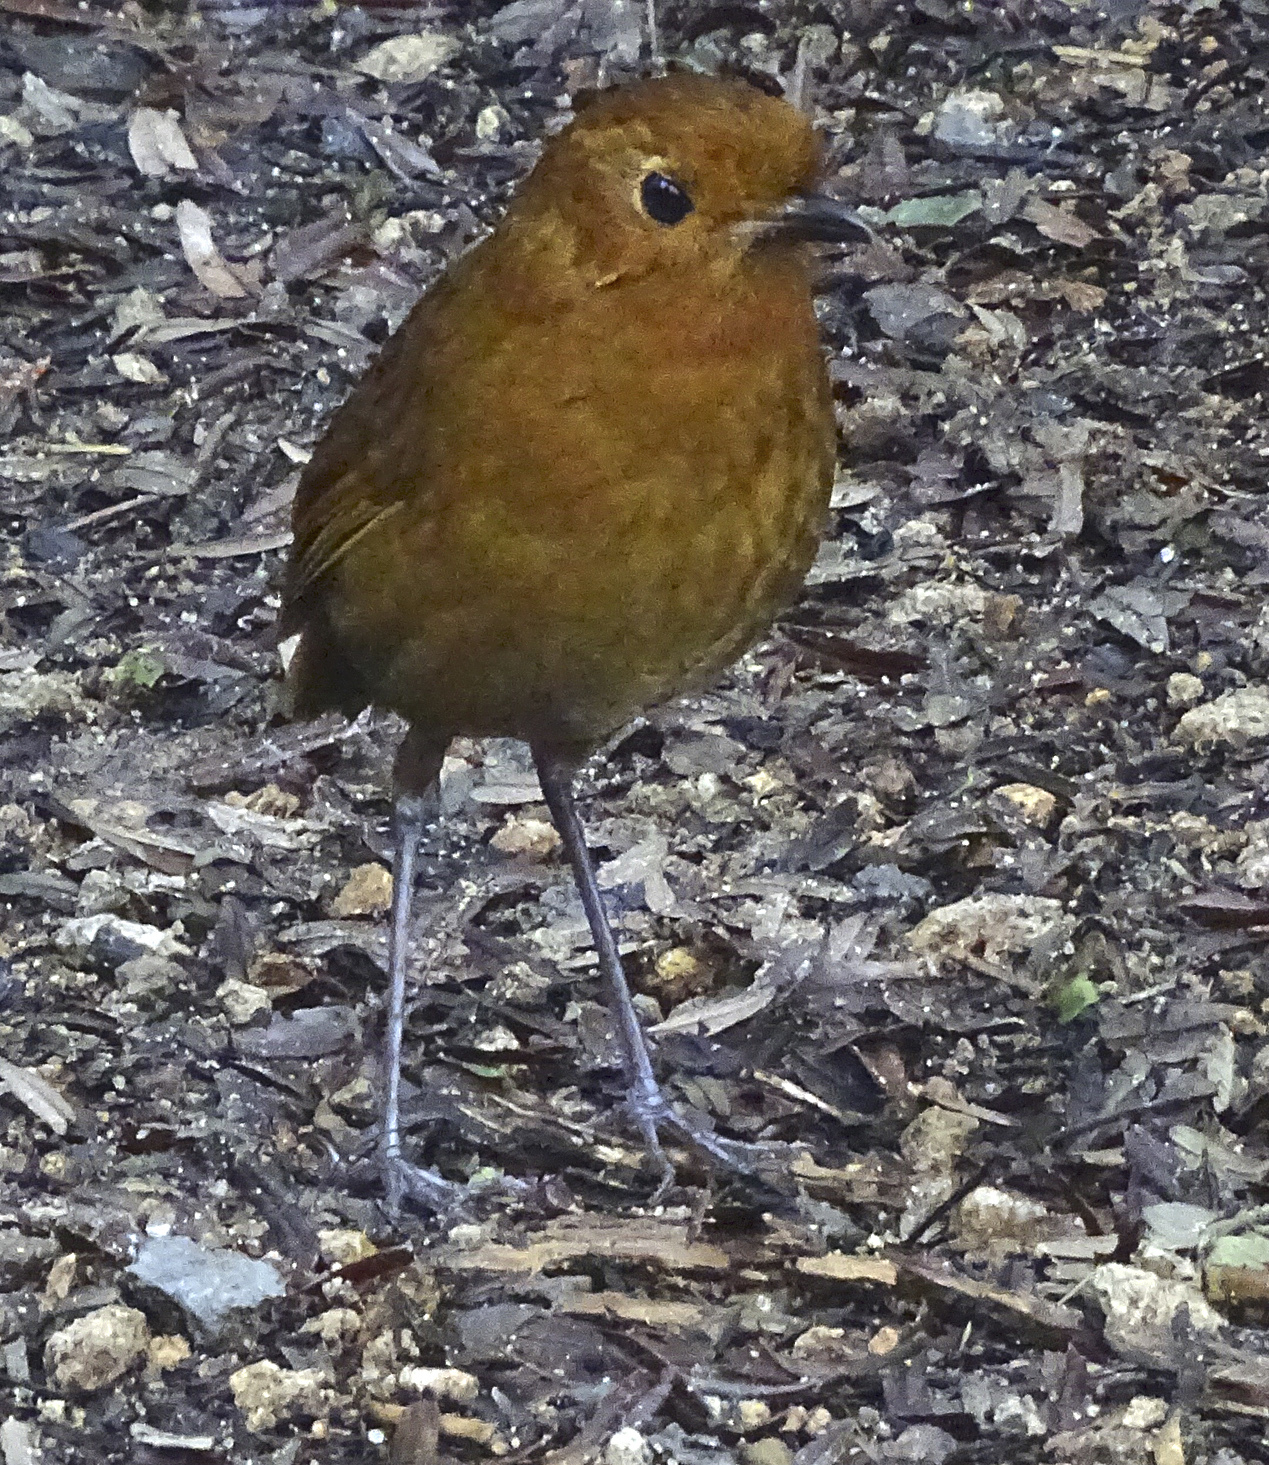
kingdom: Animalia
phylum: Chordata
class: Aves
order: Passeriformes
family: Grallariidae
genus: Grallaria
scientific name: Grallaria saturata
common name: Equatorial antpitta
